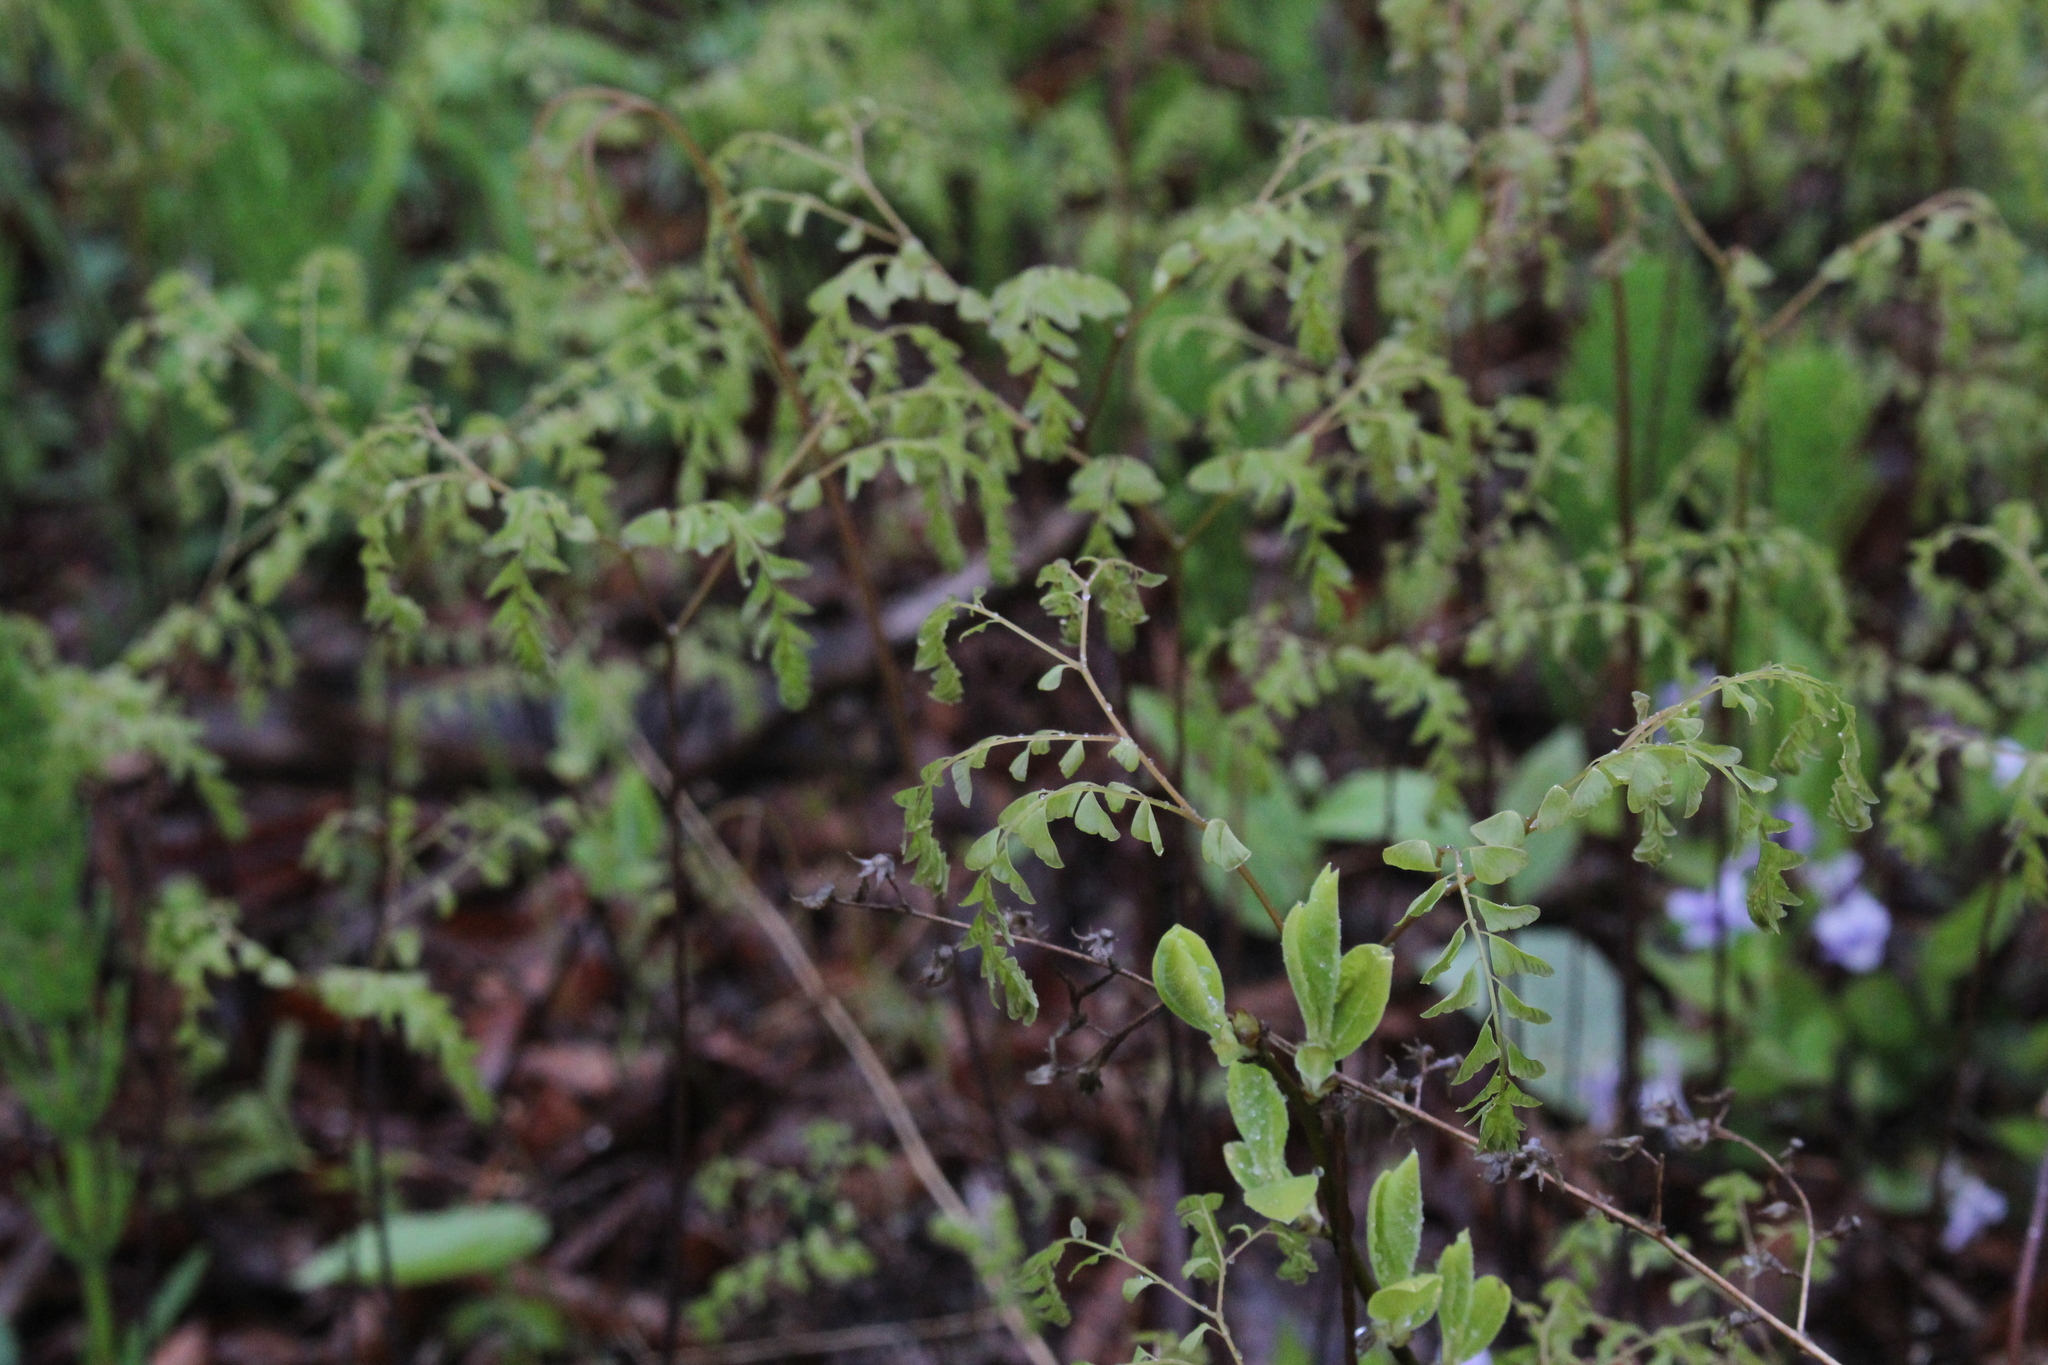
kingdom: Plantae
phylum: Tracheophyta
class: Polypodiopsida
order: Polypodiales
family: Pteridaceae
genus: Adiantum
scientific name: Adiantum pedatum
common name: Five-finger fern
